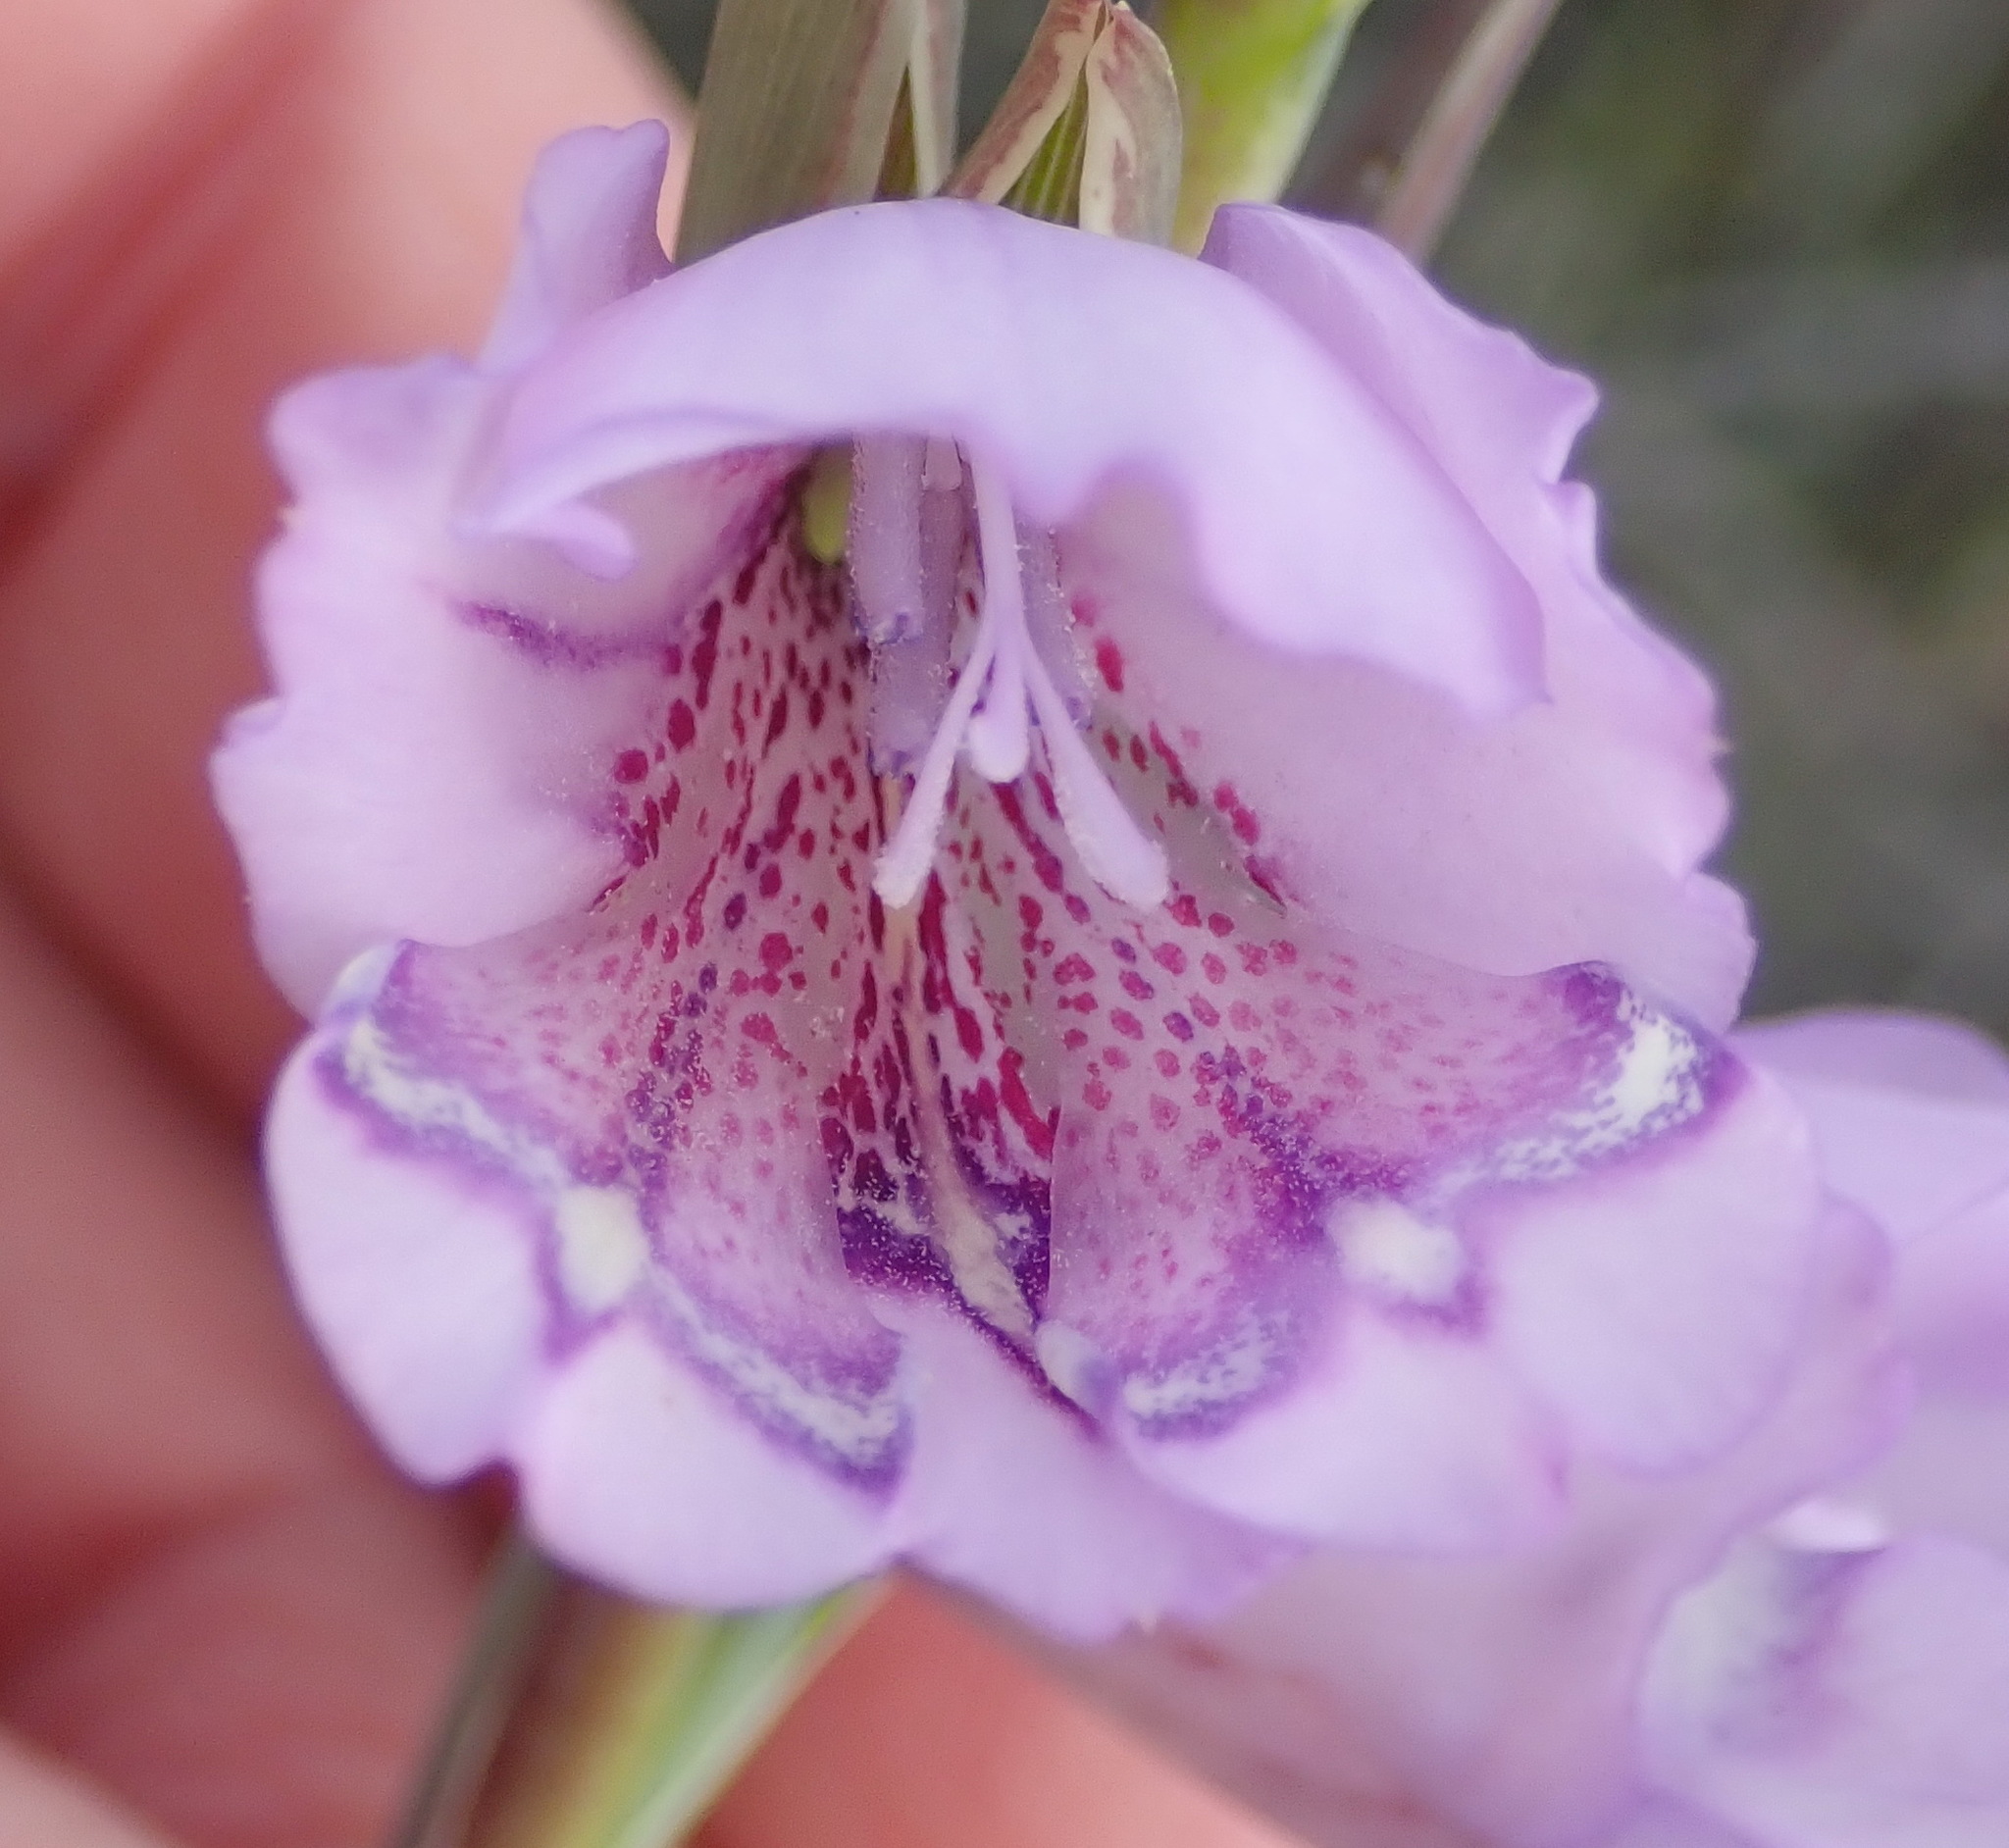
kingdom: Plantae
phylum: Tracheophyta
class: Liliopsida
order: Asparagales
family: Iridaceae
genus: Gladiolus
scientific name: Gladiolus rogersii
